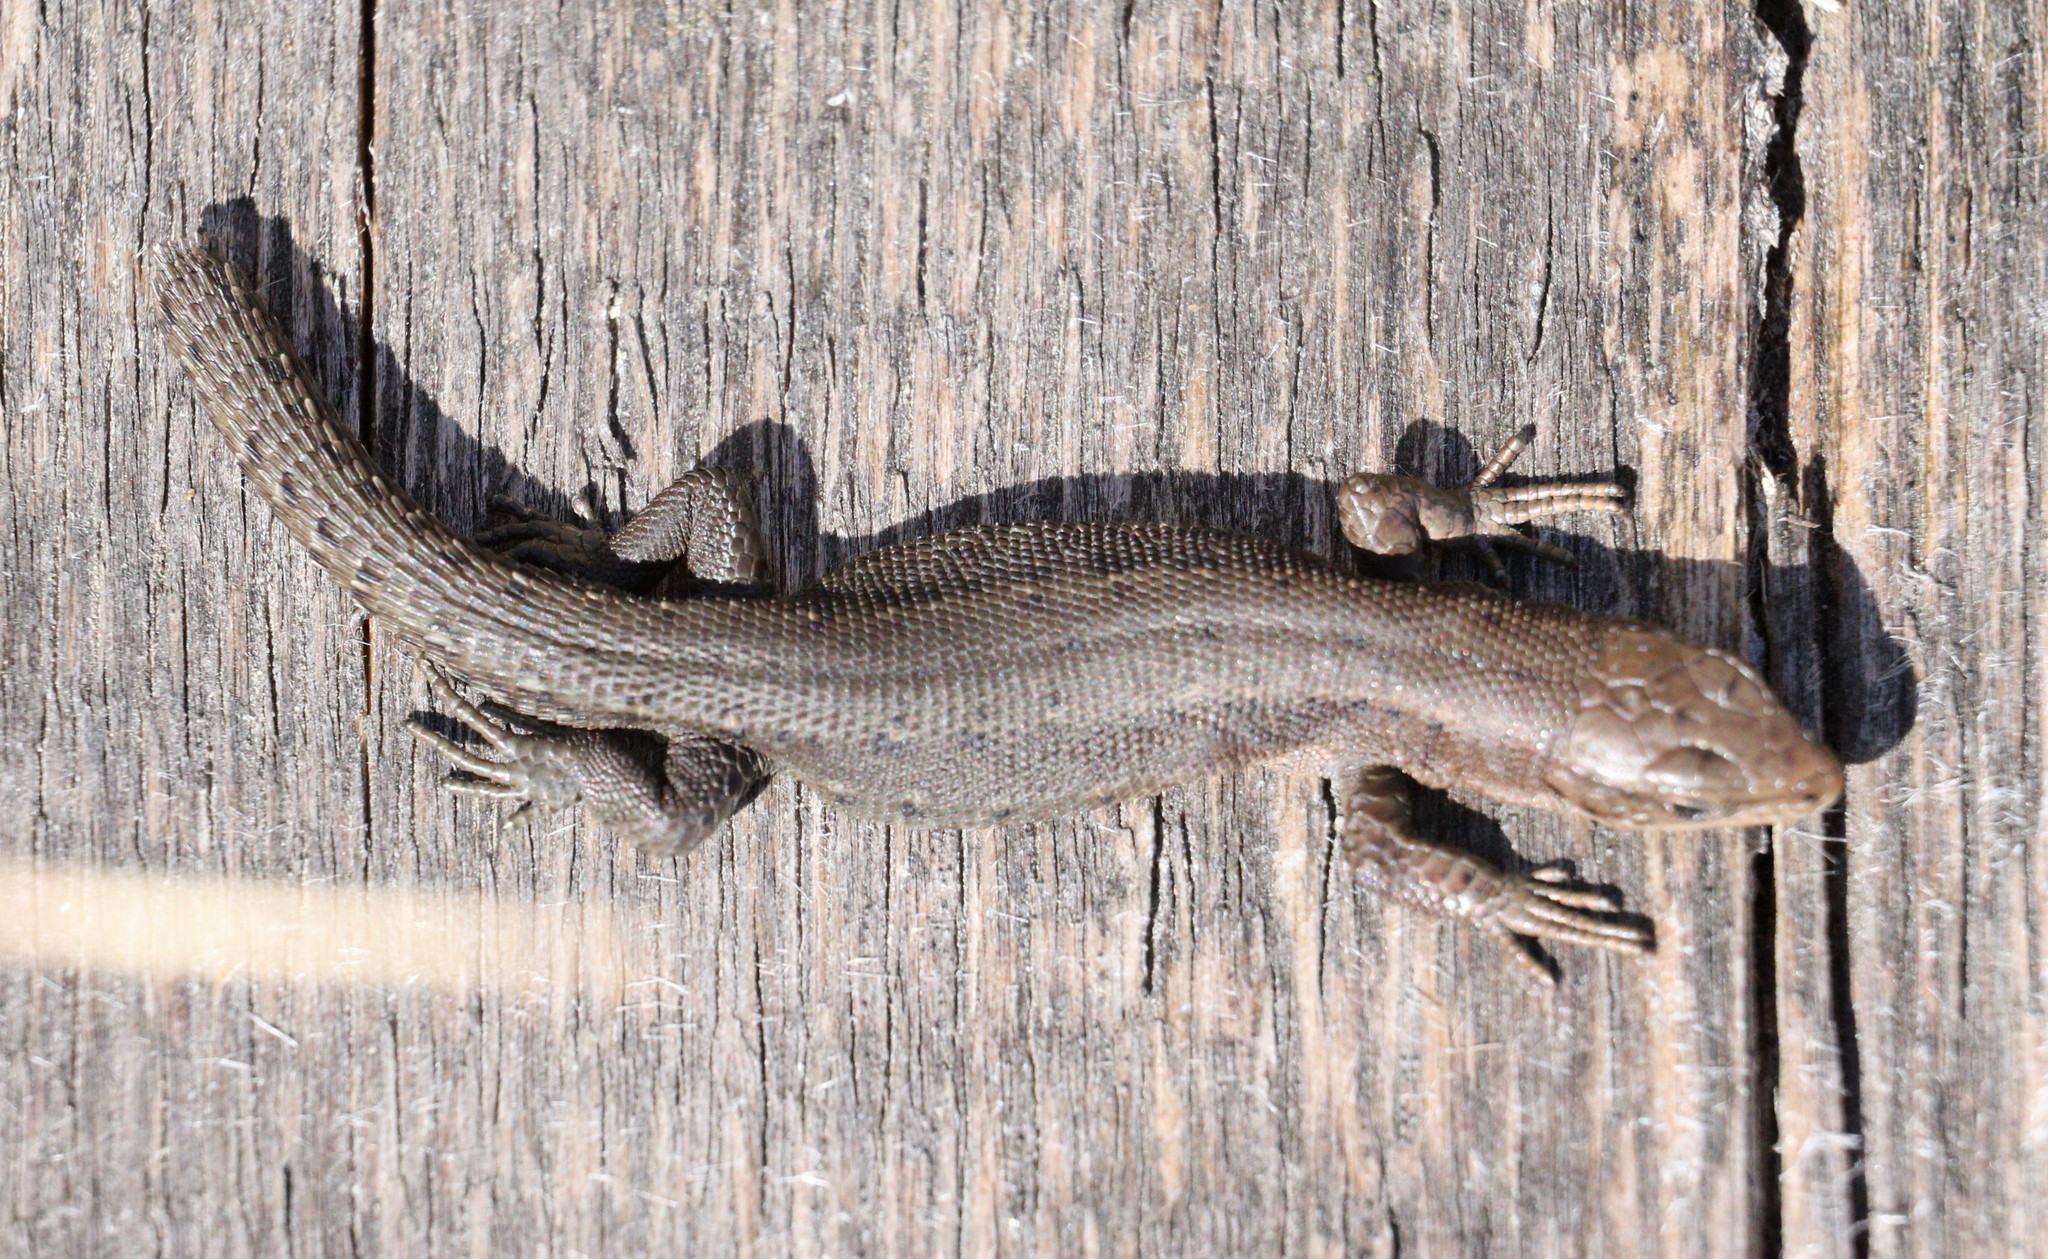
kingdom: Animalia
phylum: Chordata
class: Squamata
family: Lacertidae
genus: Zootoca
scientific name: Zootoca vivipara
